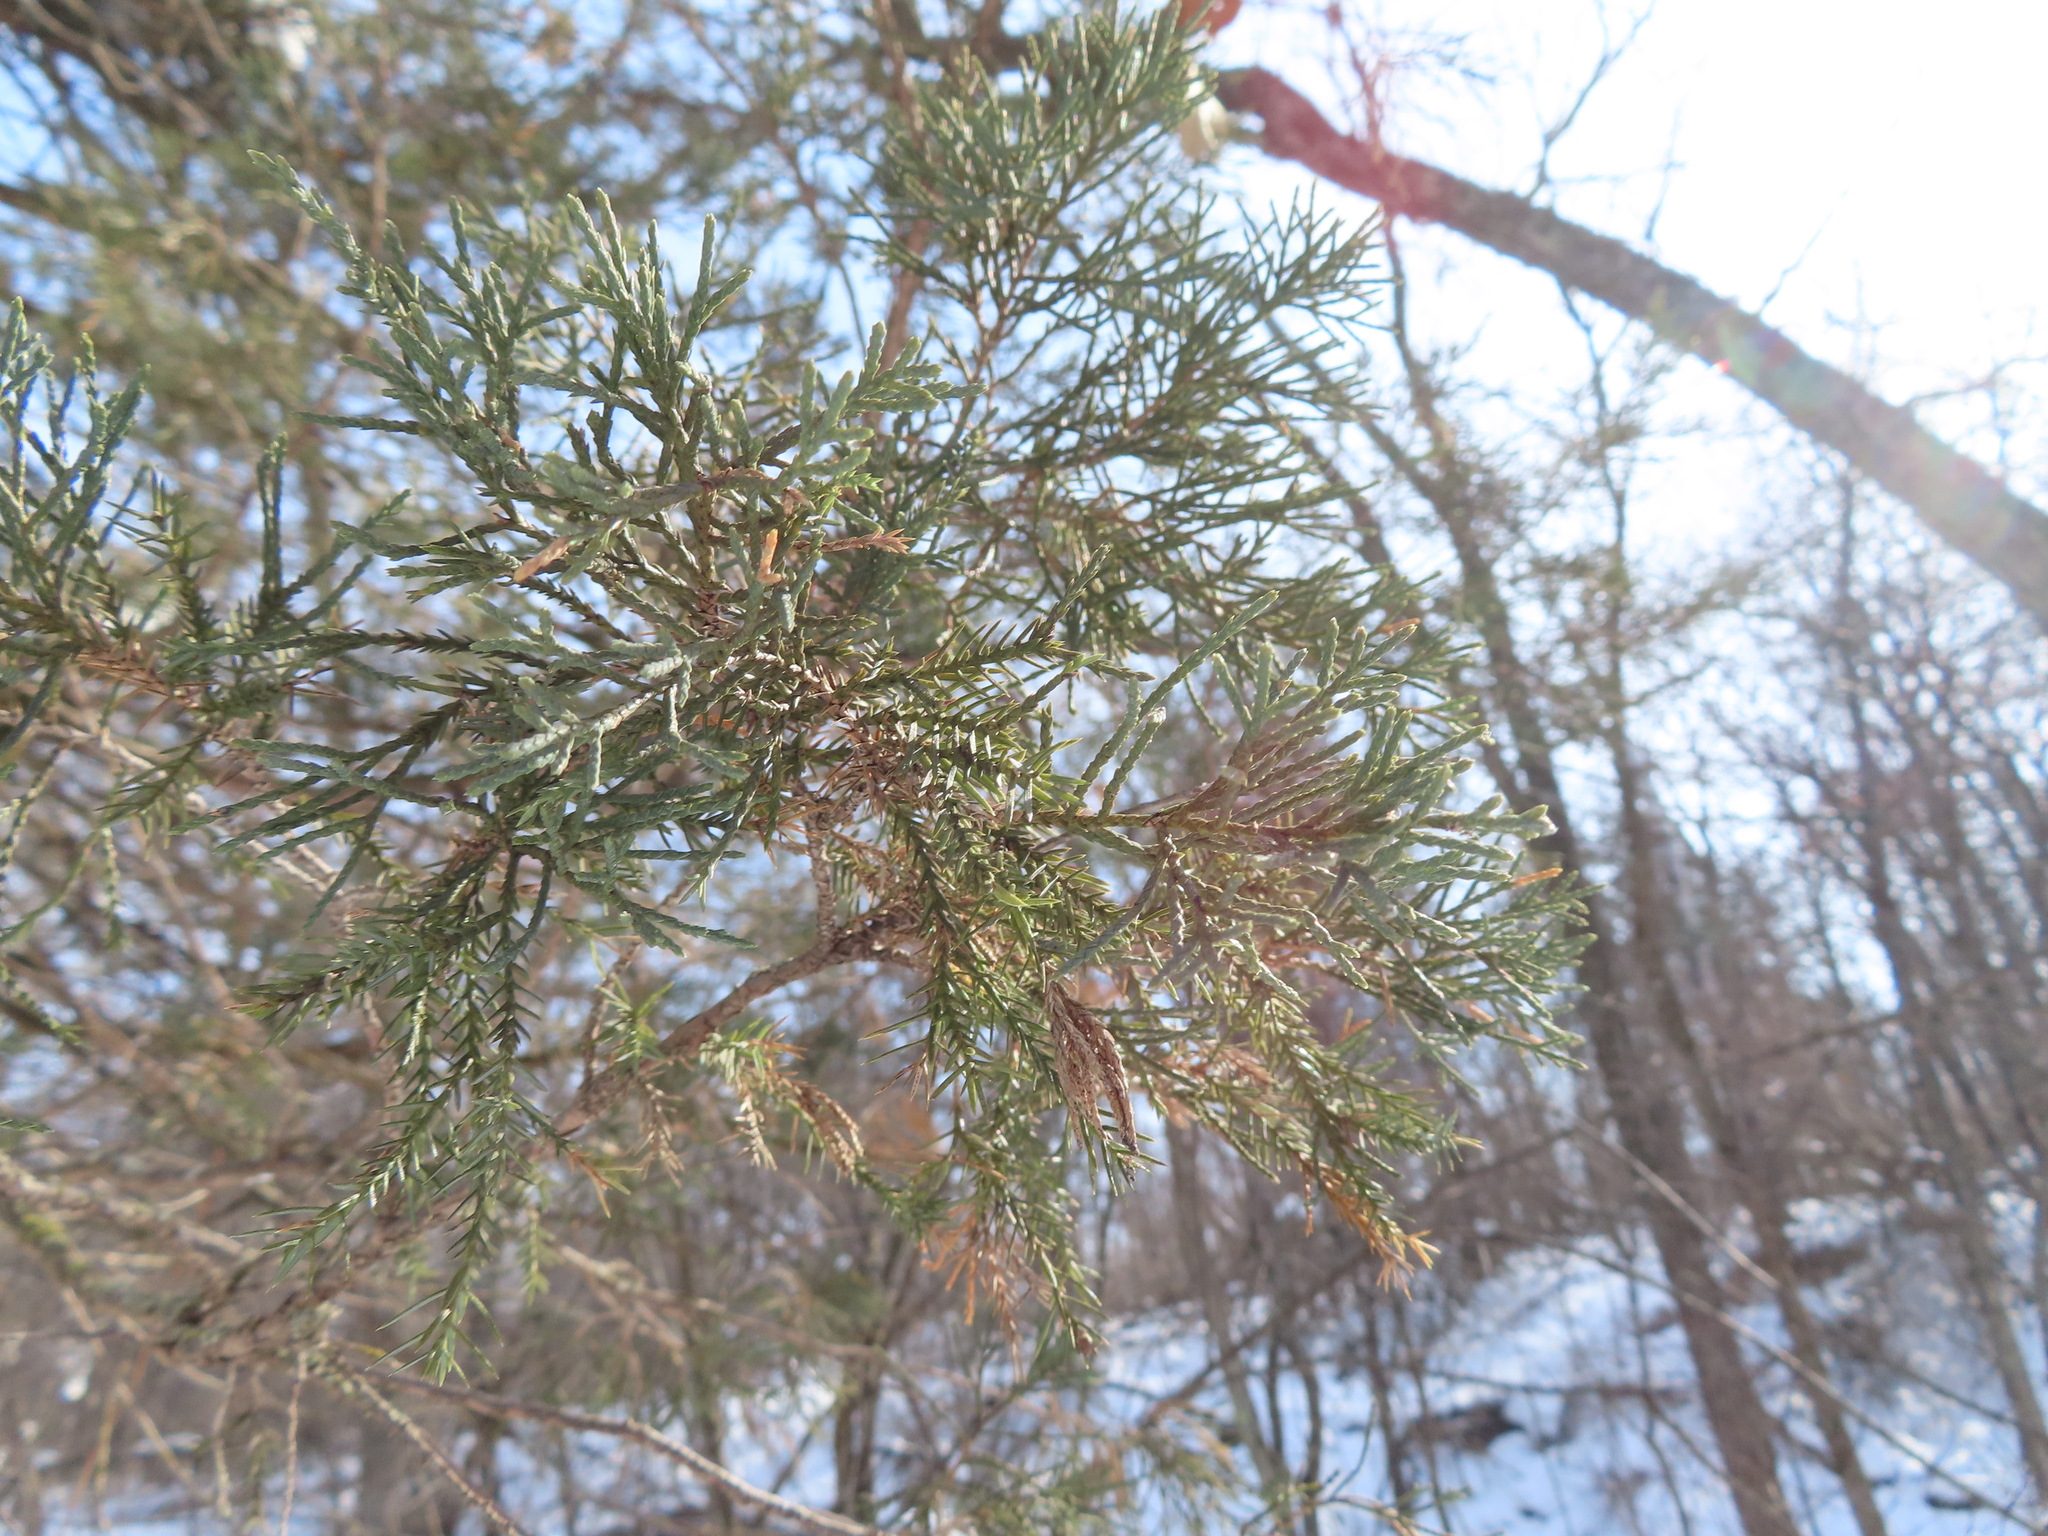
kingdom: Plantae
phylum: Tracheophyta
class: Pinopsida
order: Pinales
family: Cupressaceae
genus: Juniperus
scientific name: Juniperus virginiana
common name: Red juniper
